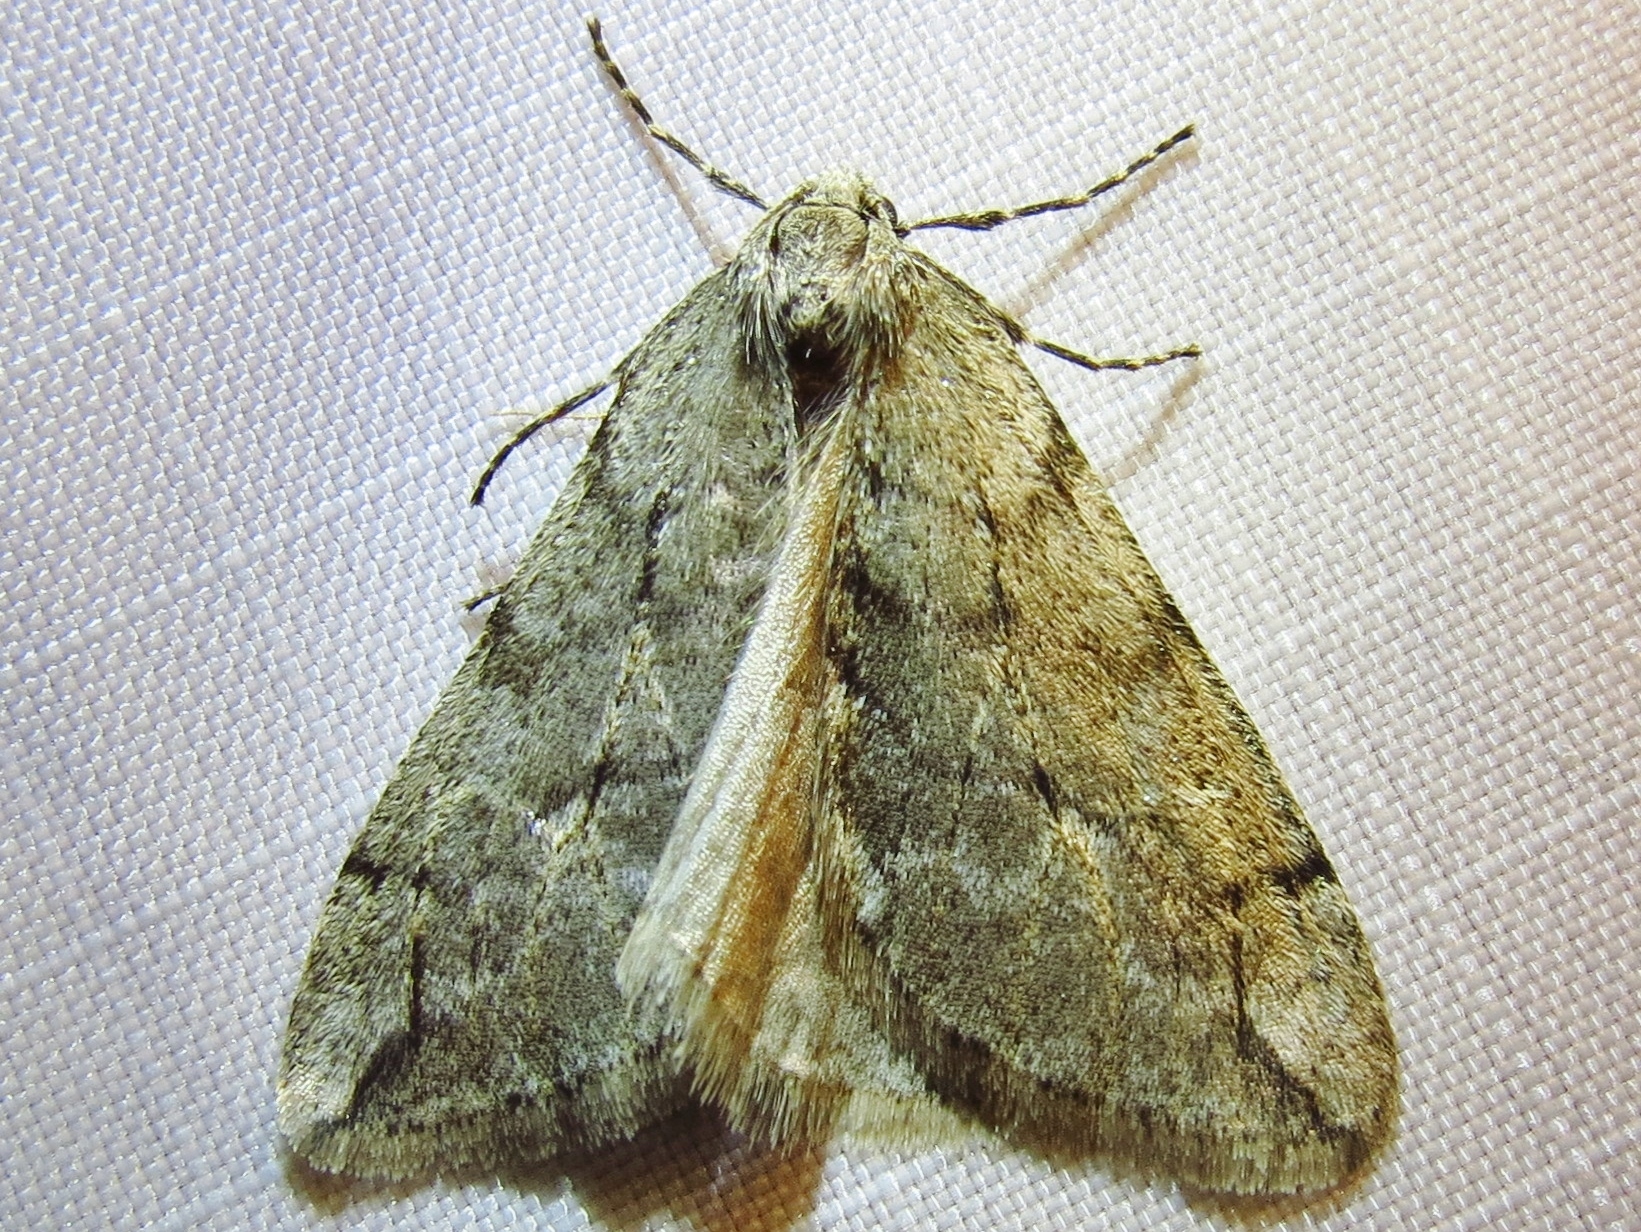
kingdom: Animalia
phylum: Arthropoda
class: Insecta
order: Lepidoptera
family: Geometridae
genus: Paleacrita
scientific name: Paleacrita vernata
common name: Spring cankerworm
